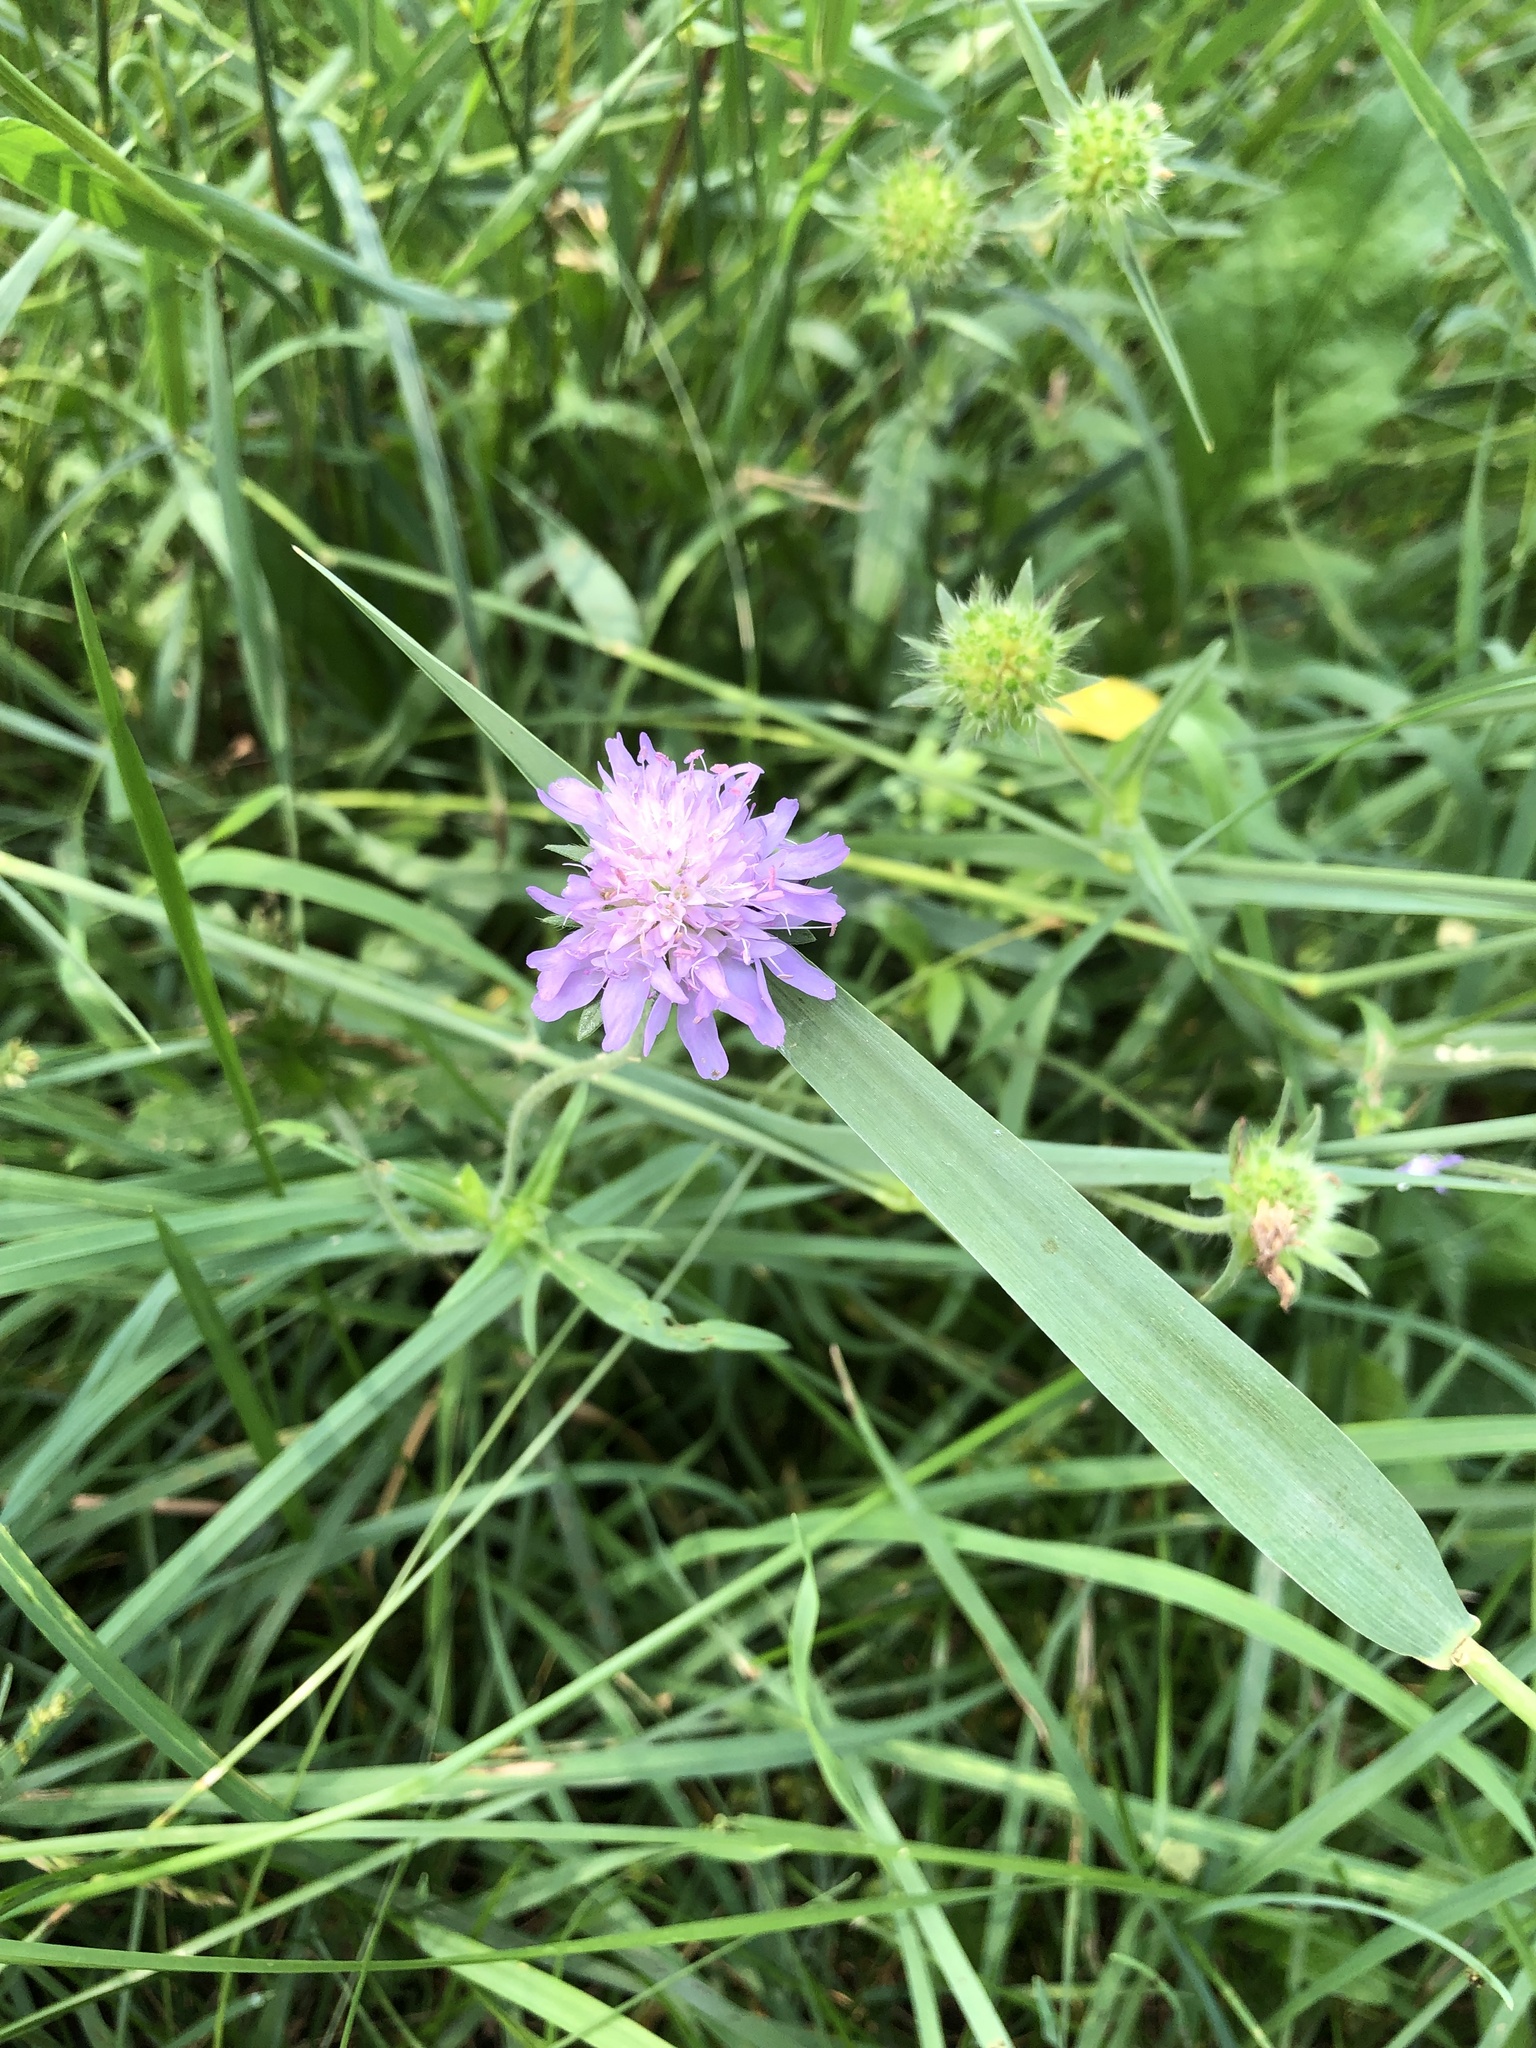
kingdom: Plantae
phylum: Tracheophyta
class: Magnoliopsida
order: Dipsacales
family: Caprifoliaceae
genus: Knautia
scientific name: Knautia arvensis
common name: Field scabiosa
